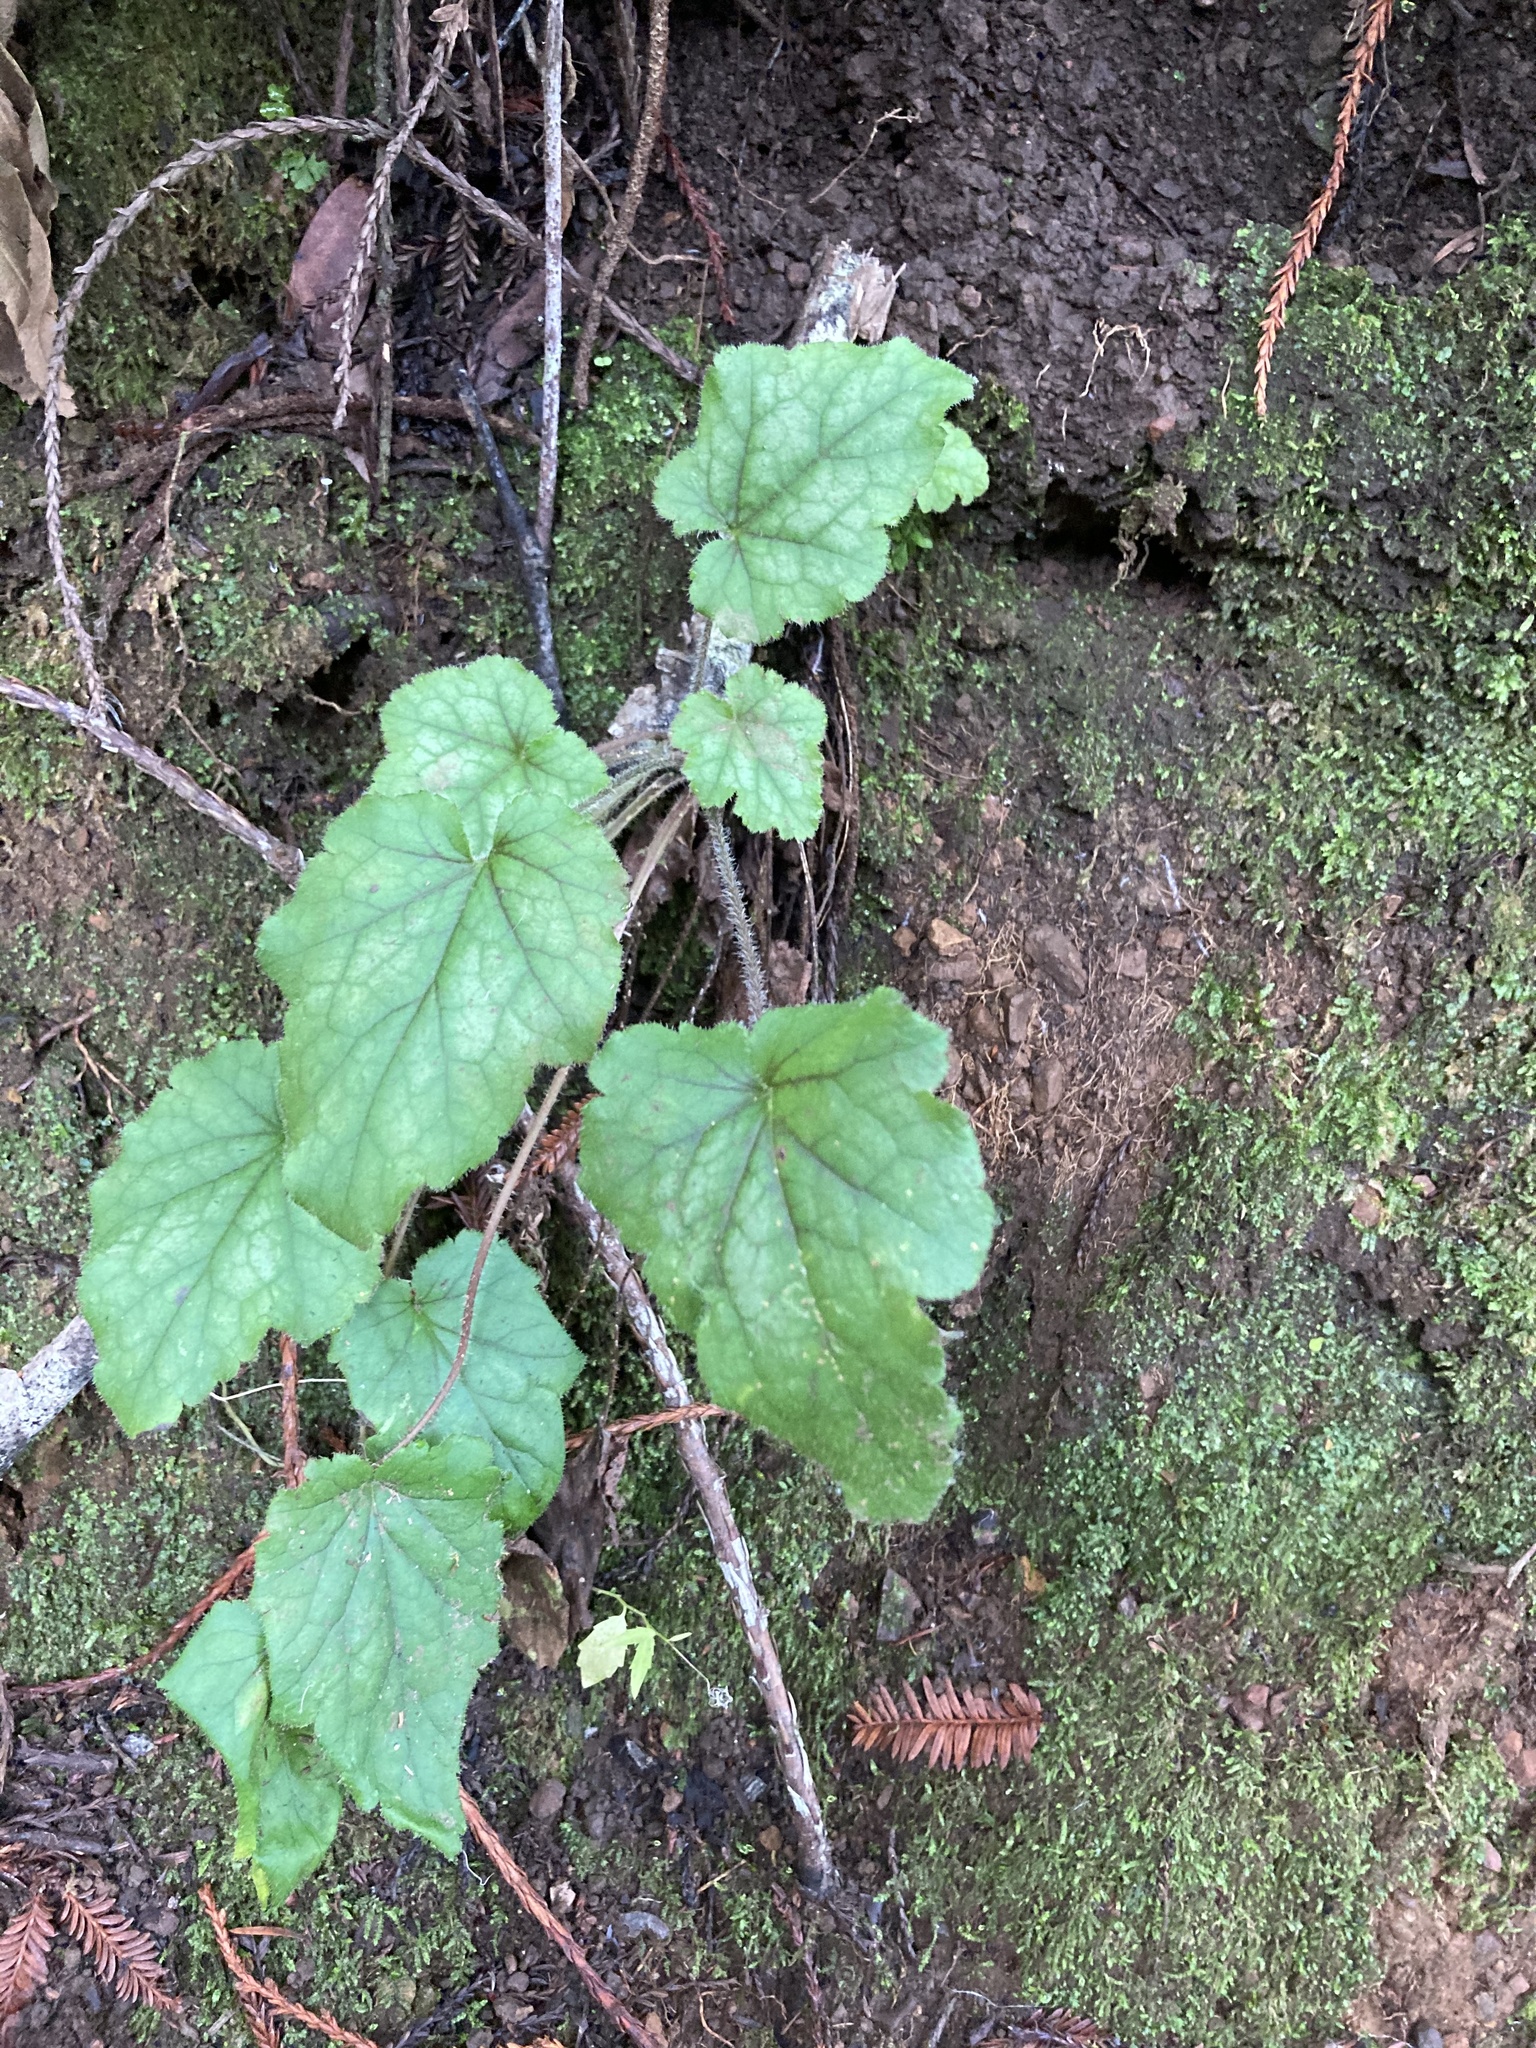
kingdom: Plantae
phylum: Tracheophyta
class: Magnoliopsida
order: Saxifragales
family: Saxifragaceae
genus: Heuchera
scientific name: Heuchera micrantha
